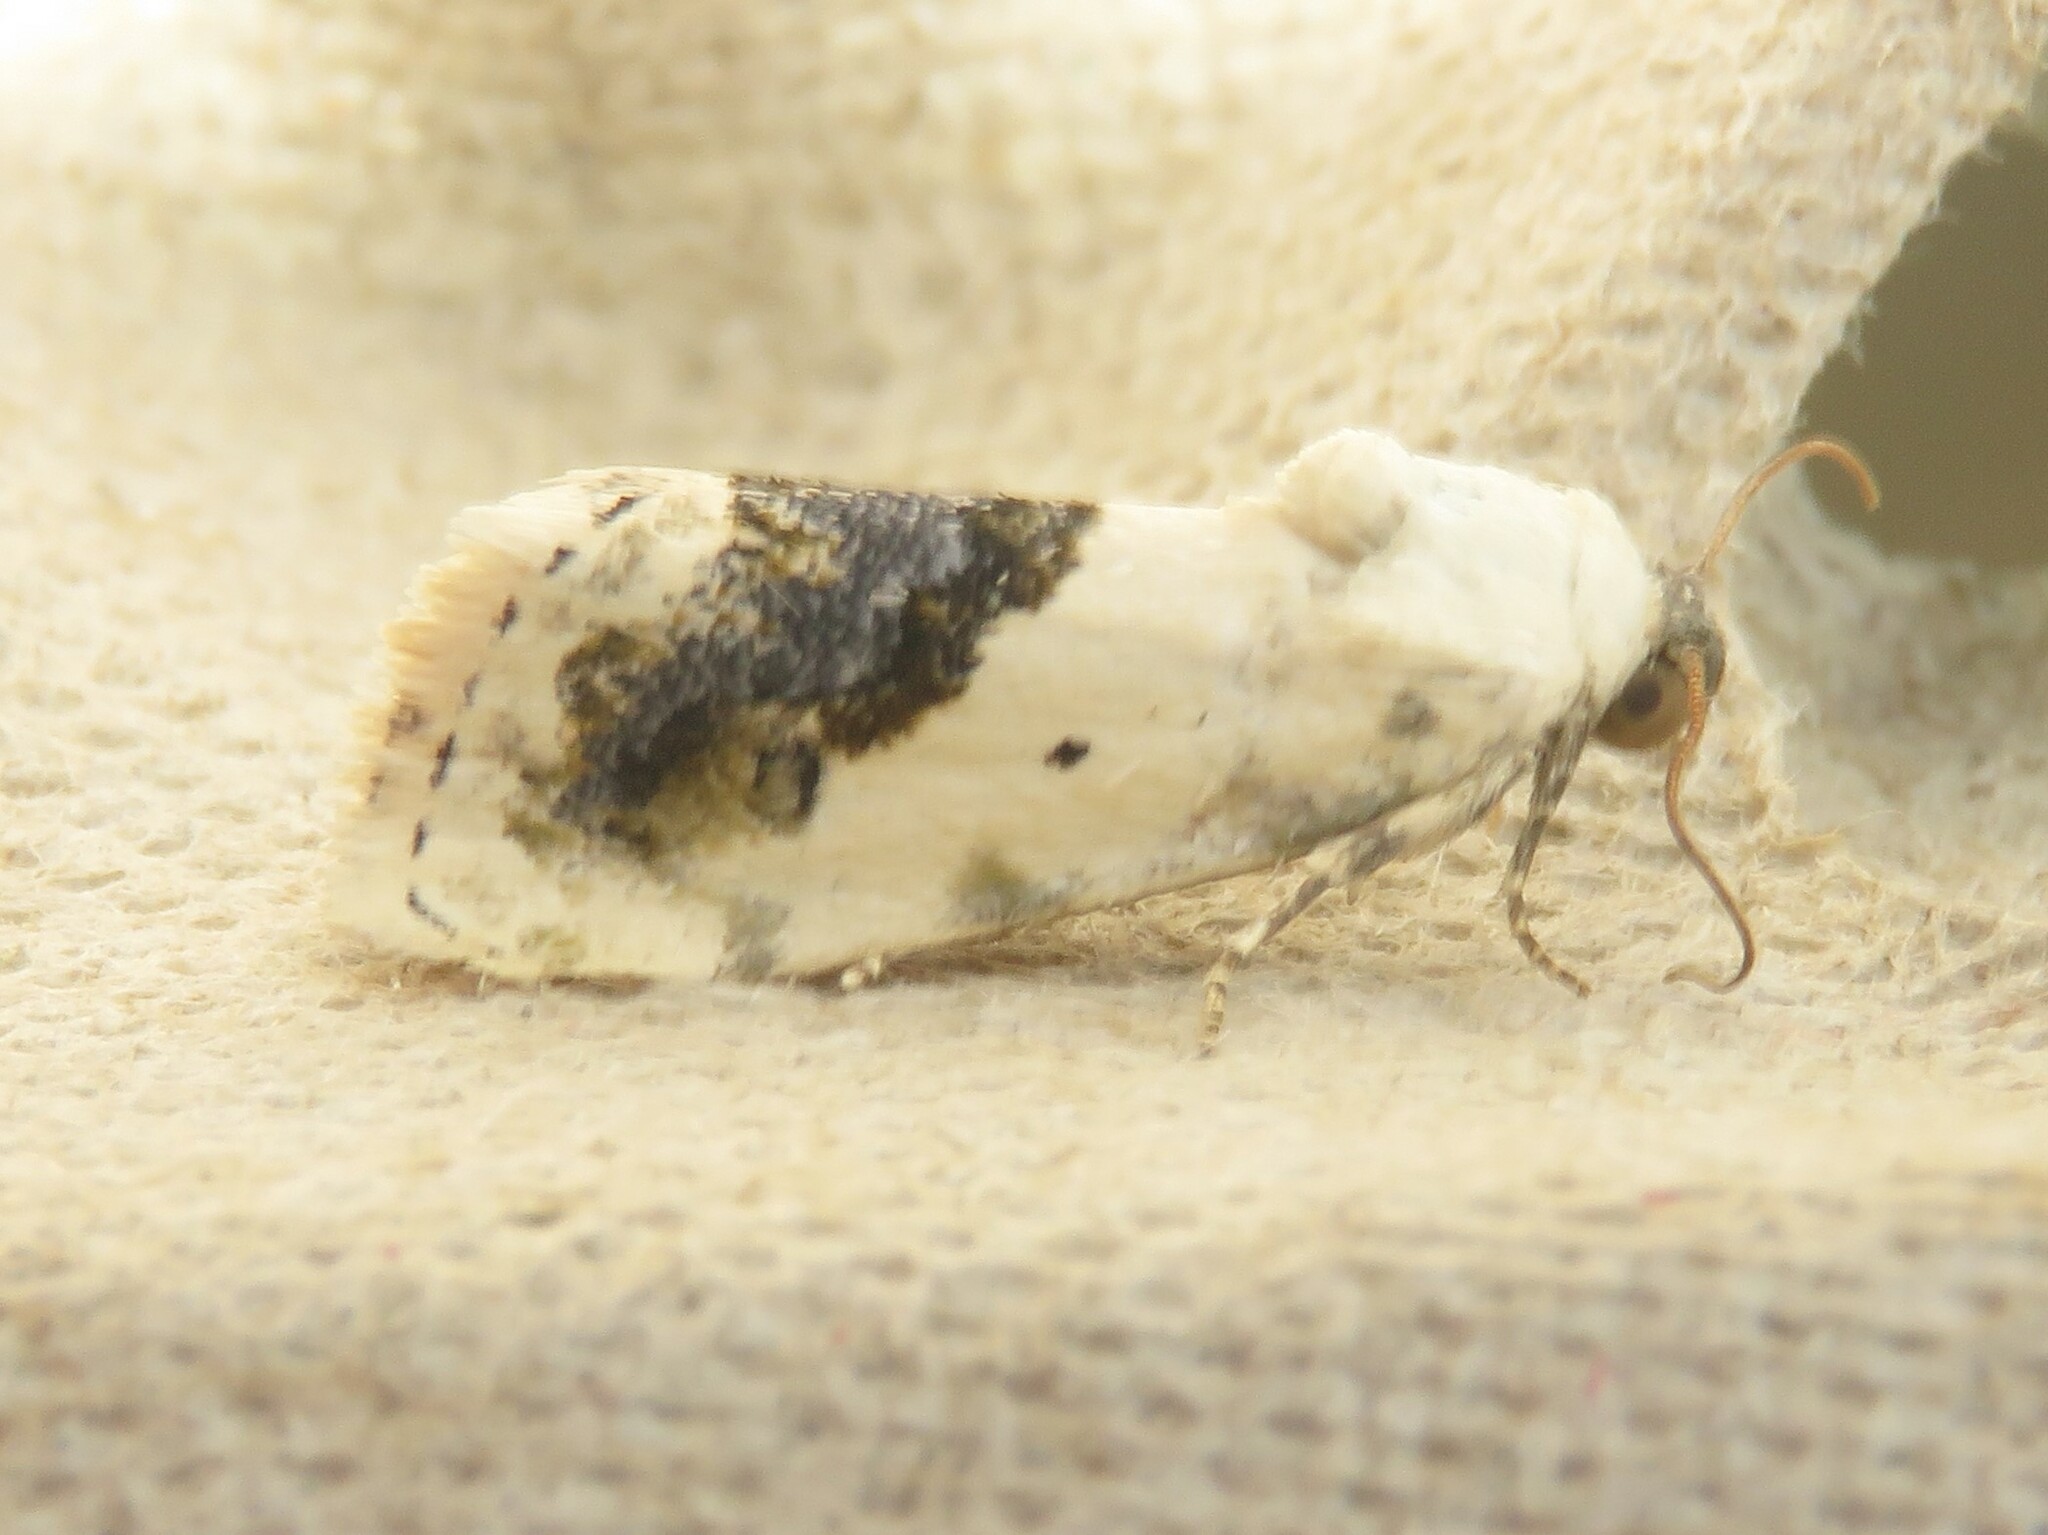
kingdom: Animalia
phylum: Arthropoda
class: Insecta
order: Lepidoptera
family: Noctuidae
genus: Acontia
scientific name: Acontia erastrioides
